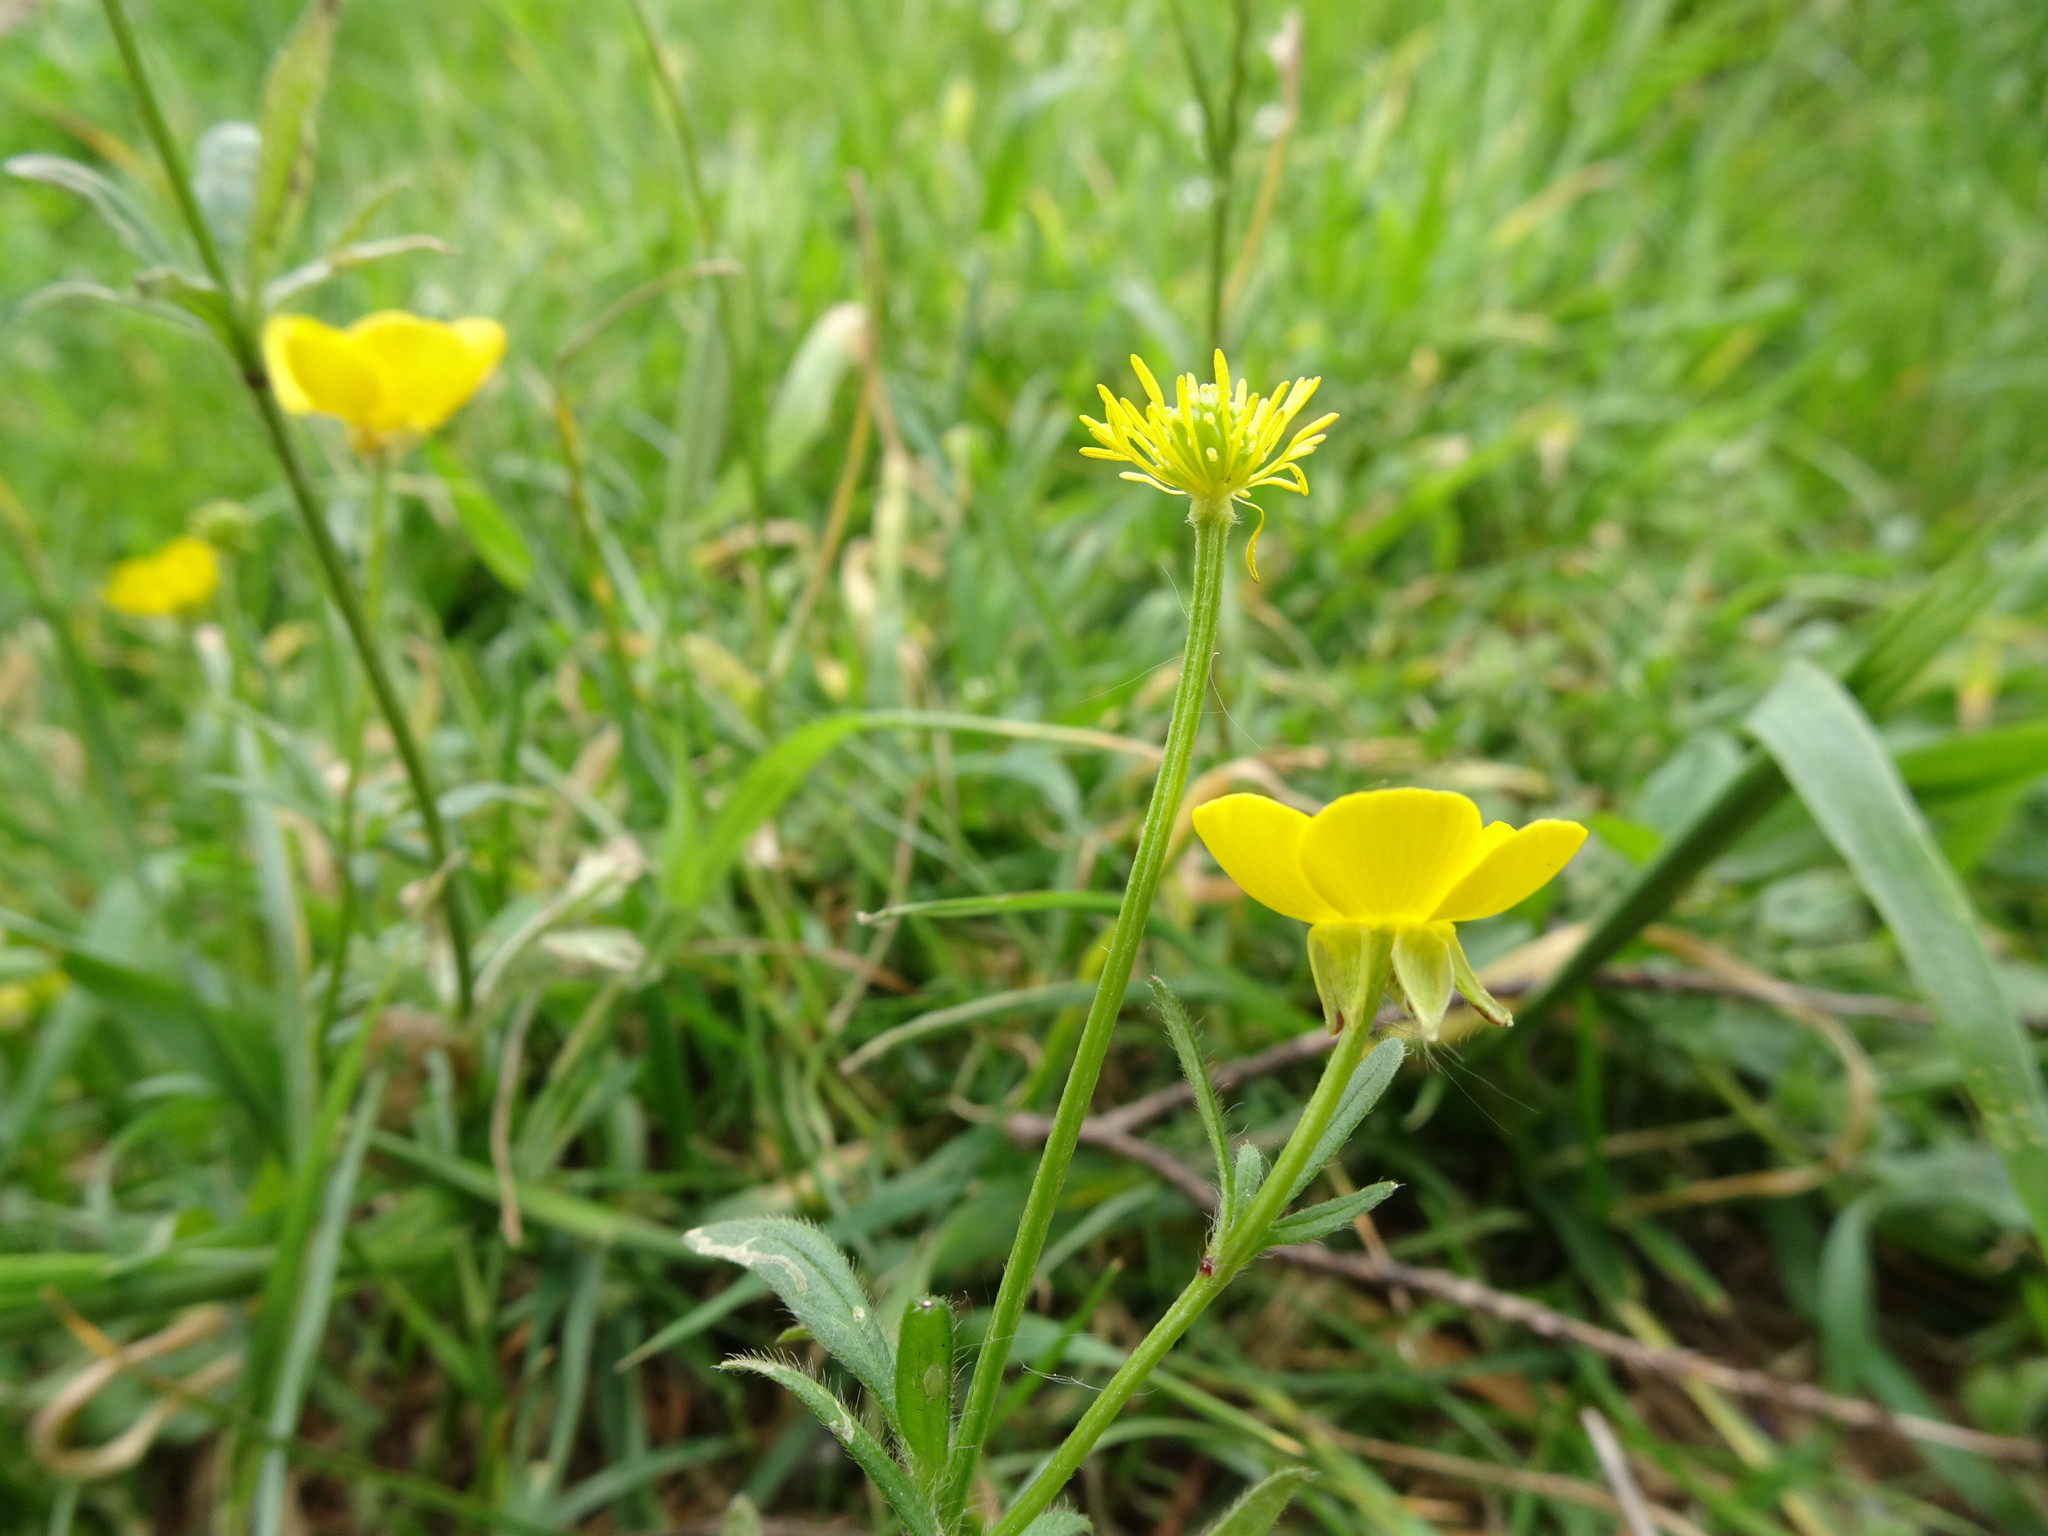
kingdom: Plantae
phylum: Tracheophyta
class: Magnoliopsida
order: Ranunculales
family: Ranunculaceae
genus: Ranunculus
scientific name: Ranunculus bulbosus
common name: Bulbous buttercup
